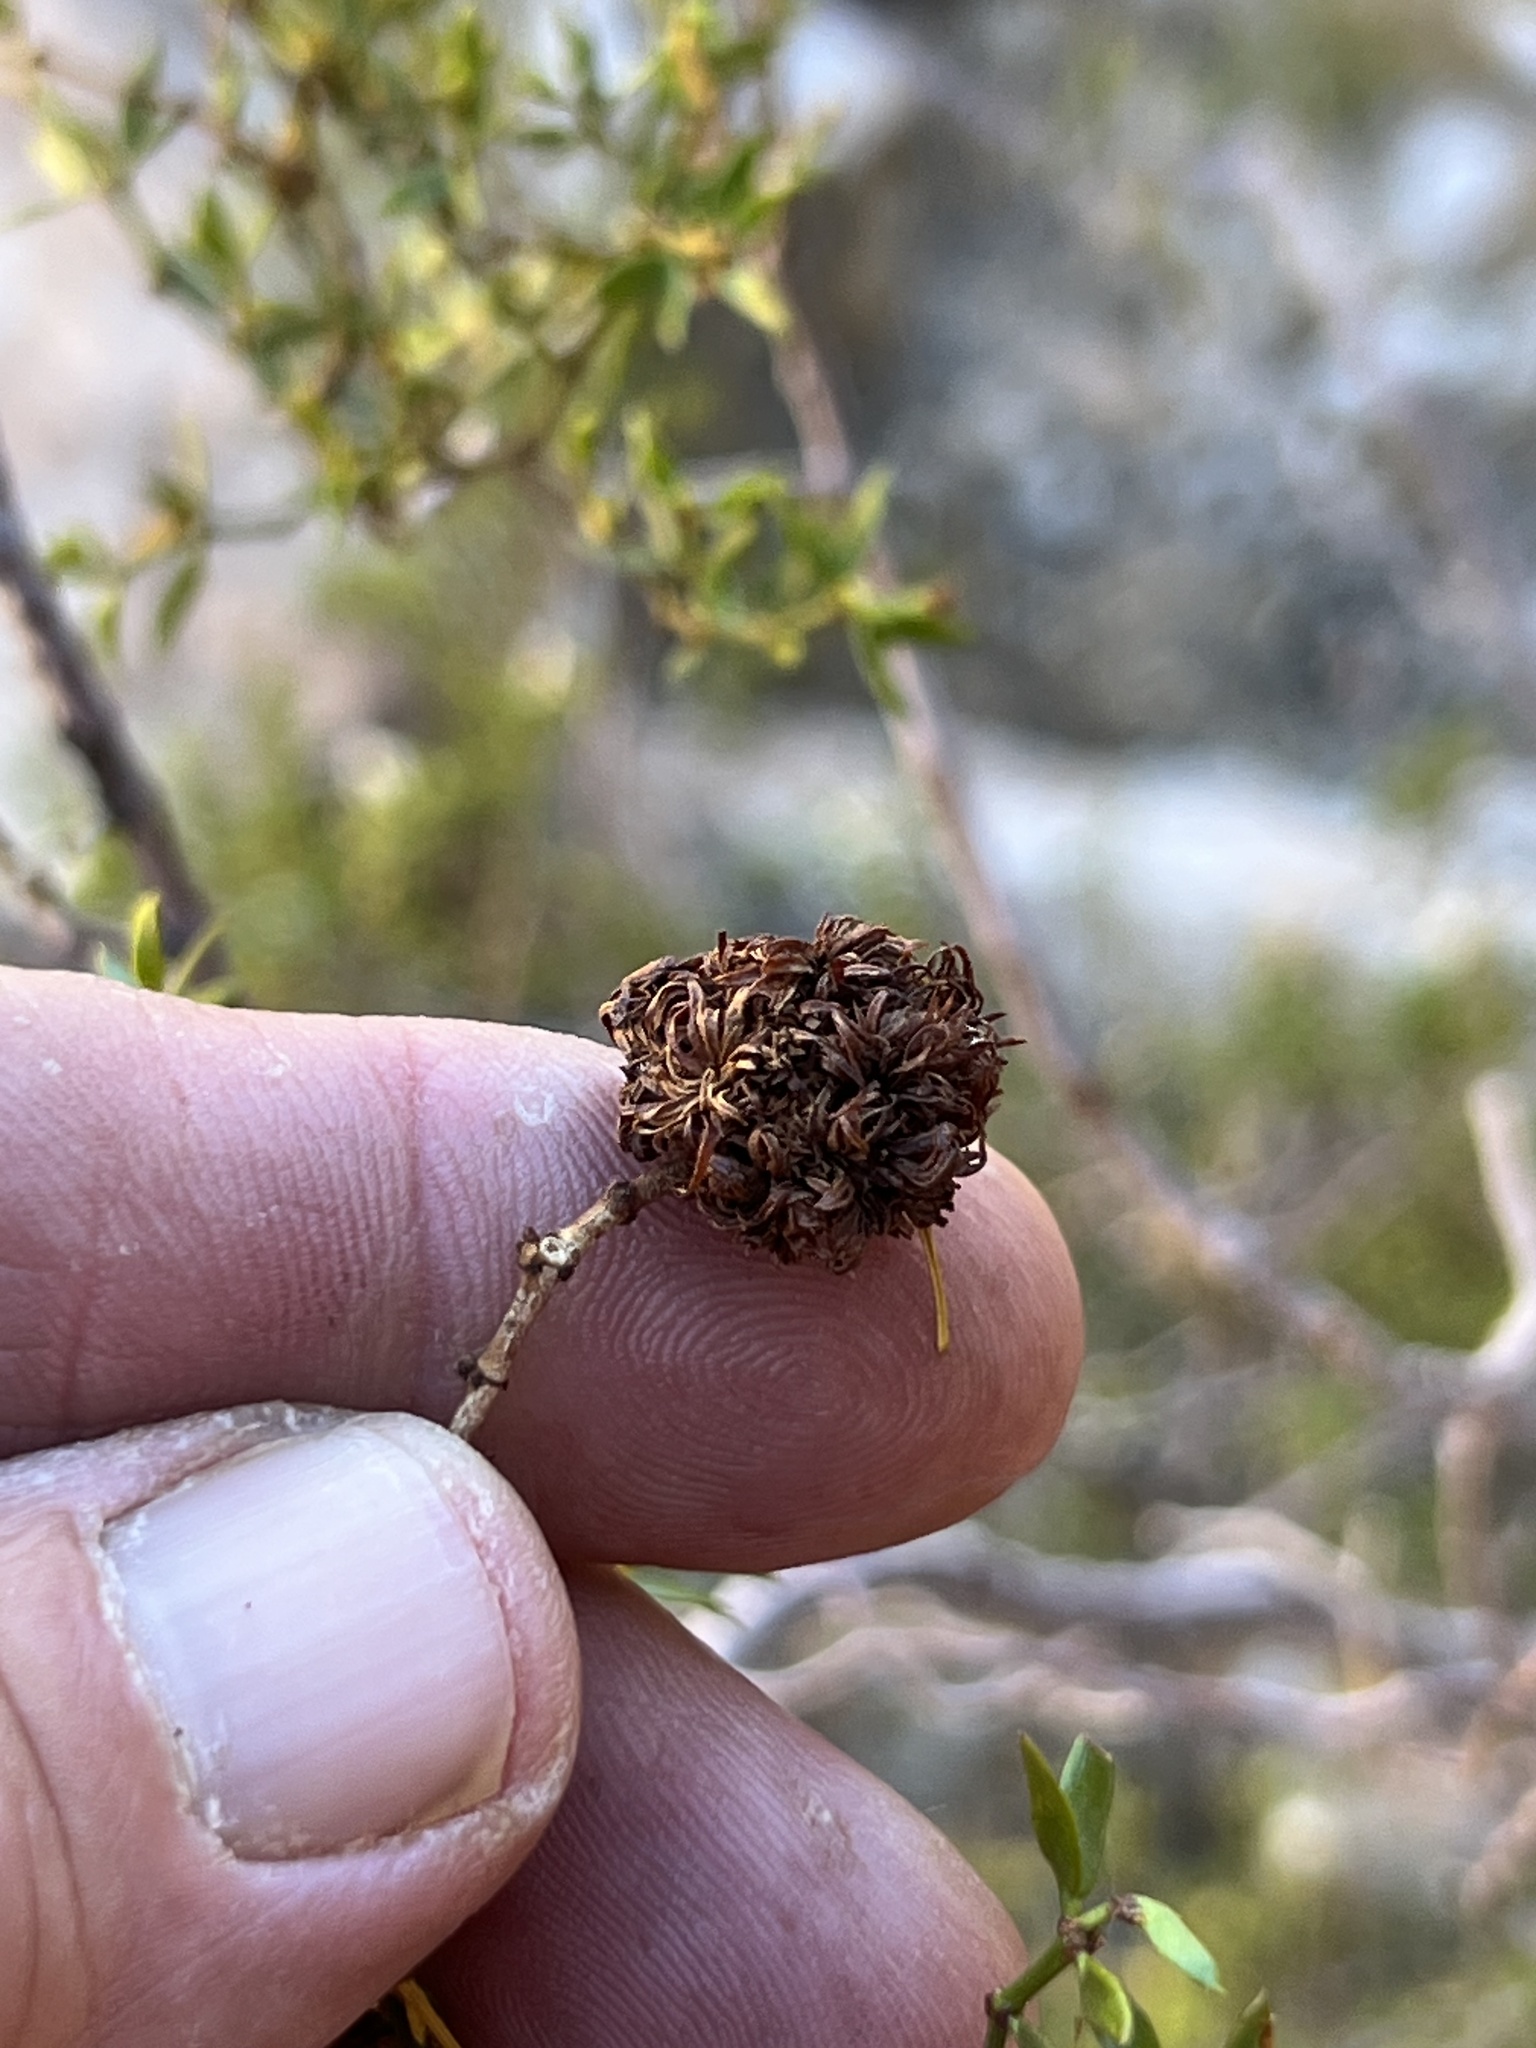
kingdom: Animalia
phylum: Arthropoda
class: Insecta
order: Diptera
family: Cecidomyiidae
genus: Asphondylia
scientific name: Asphondylia auripila
